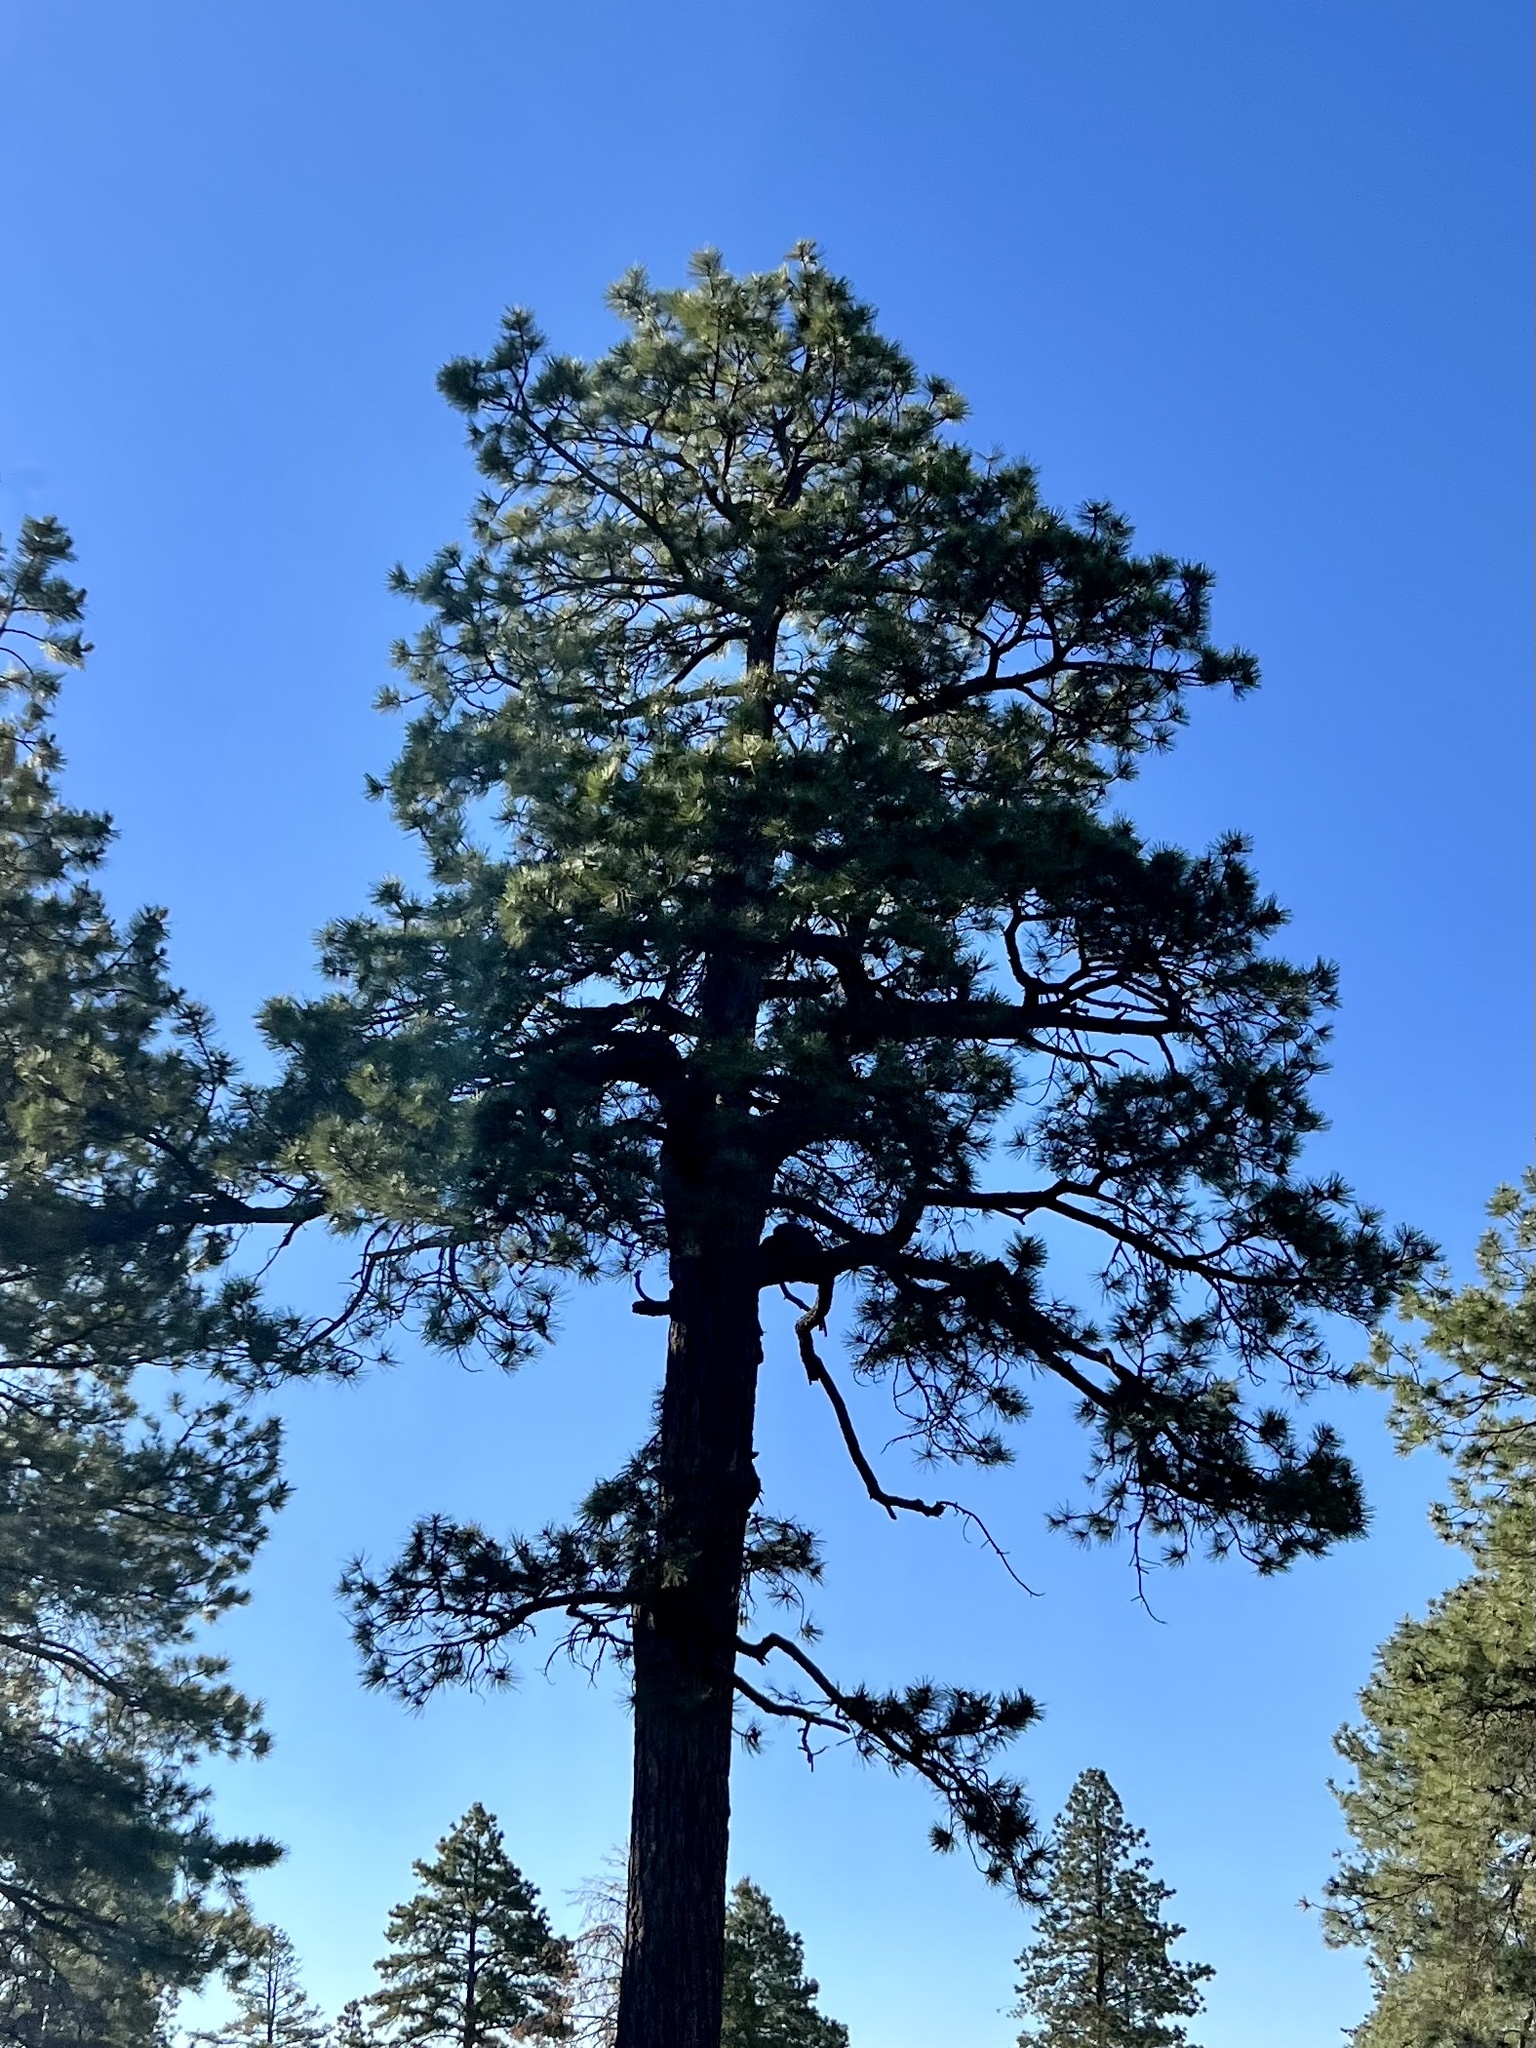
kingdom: Plantae
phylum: Tracheophyta
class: Pinopsida
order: Pinales
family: Pinaceae
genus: Pinus
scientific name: Pinus ponderosa
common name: Western yellow-pine
